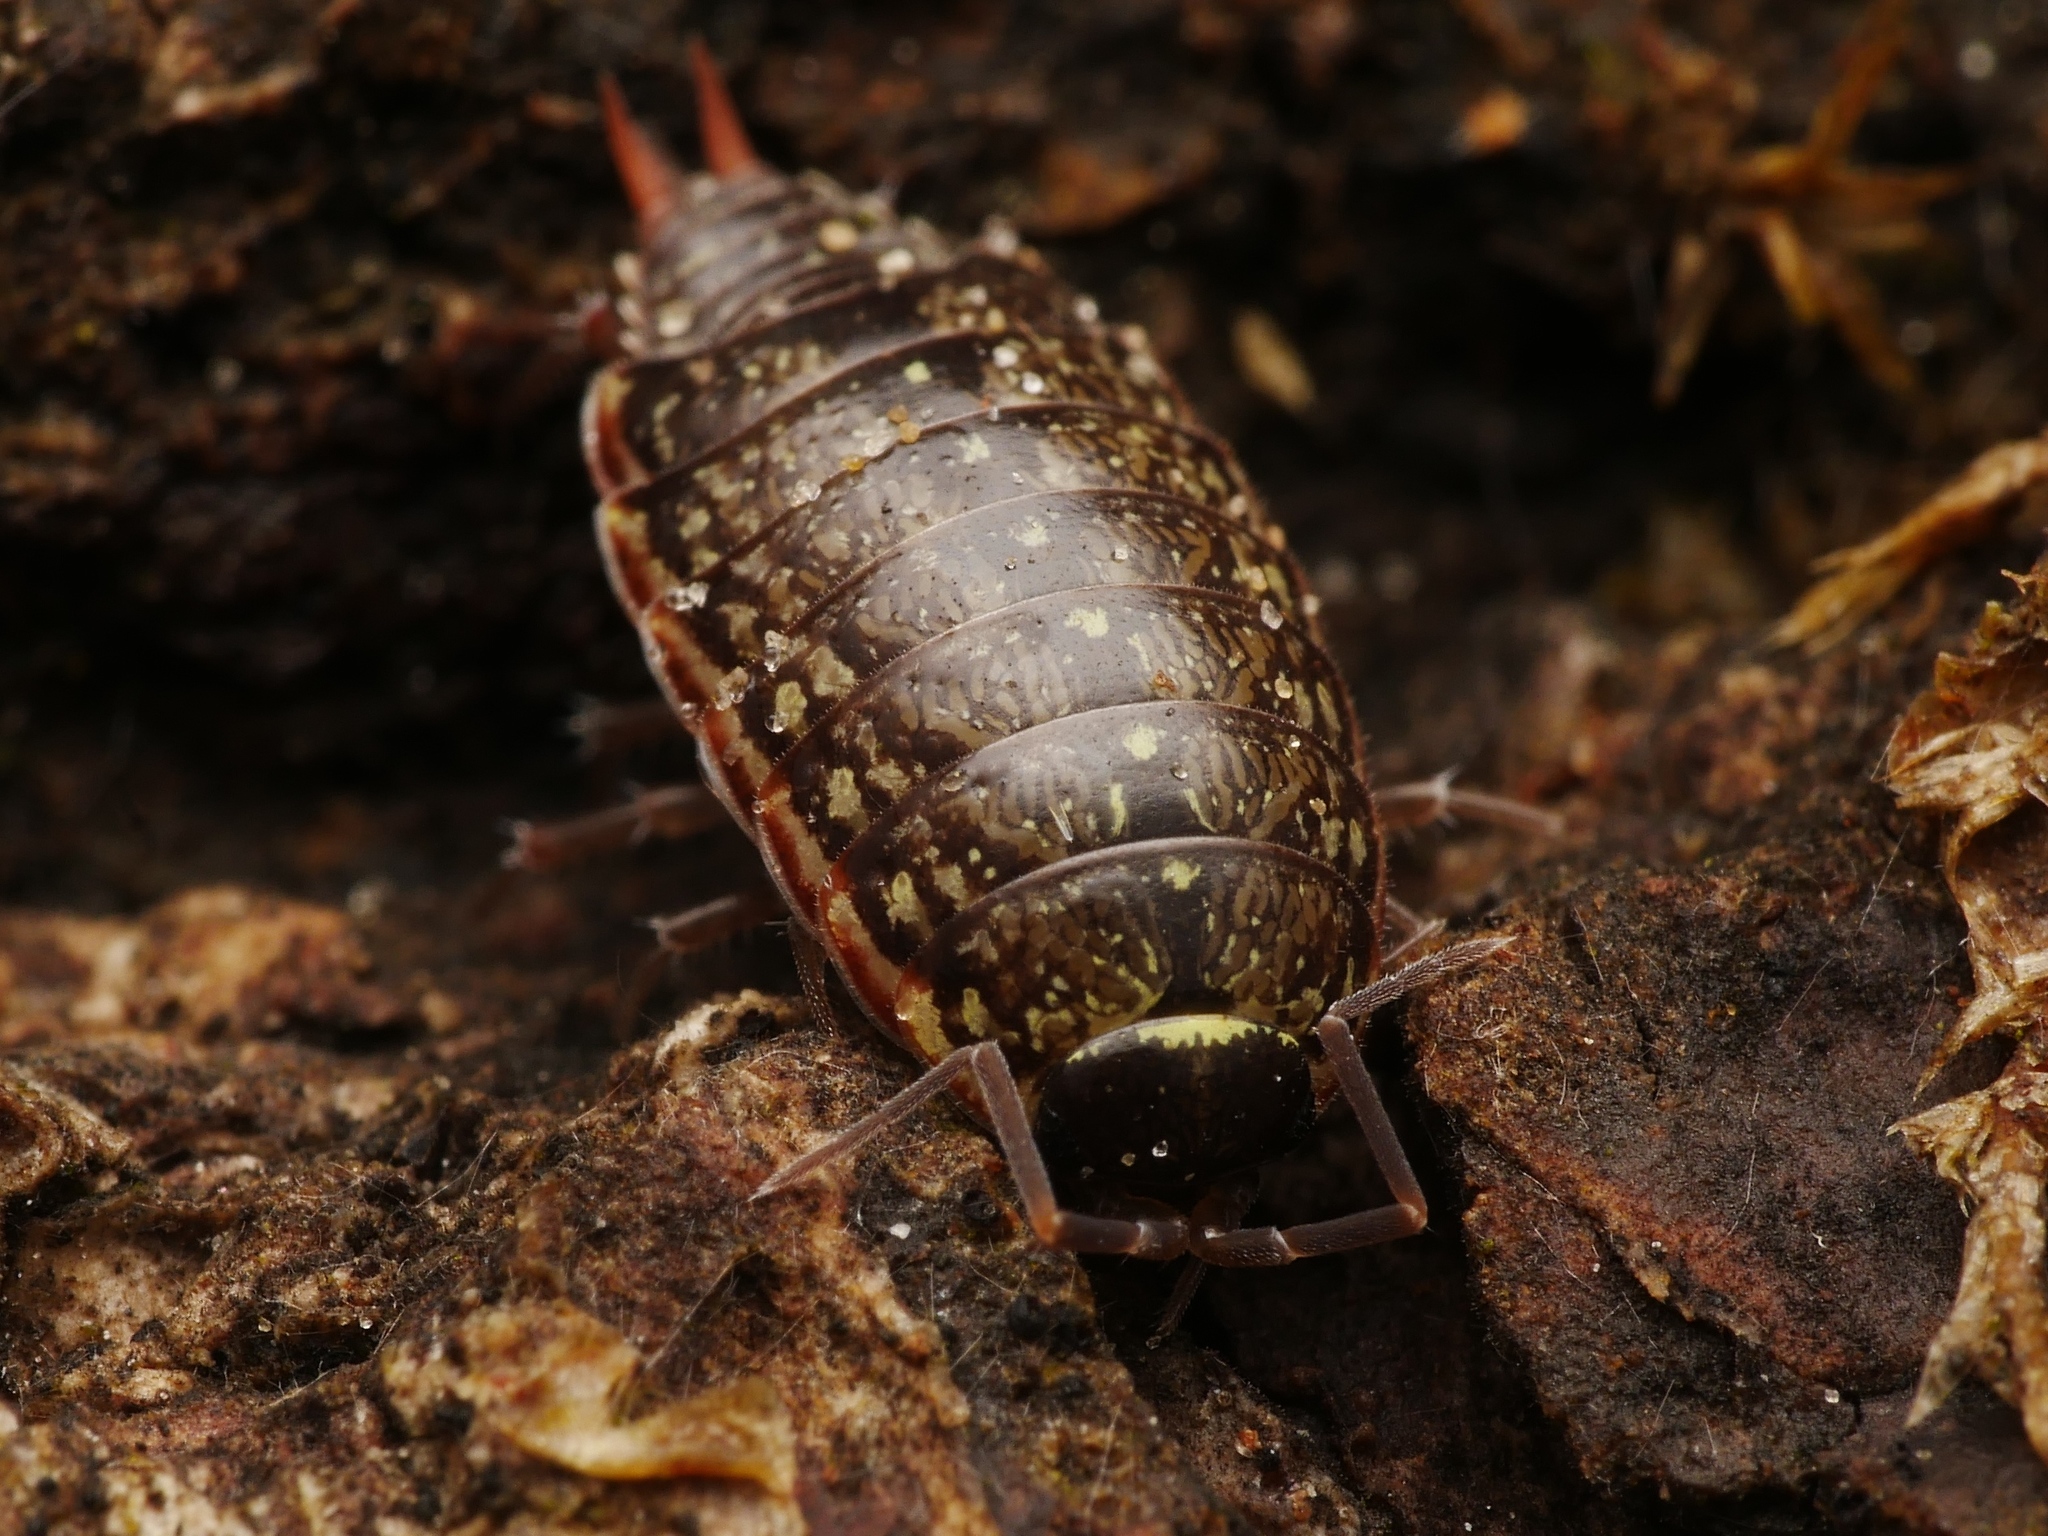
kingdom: Animalia
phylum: Arthropoda
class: Malacostraca
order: Isopoda
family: Philosciidae
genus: Philoscia
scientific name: Philoscia muscorum
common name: Common striped woodlouse
